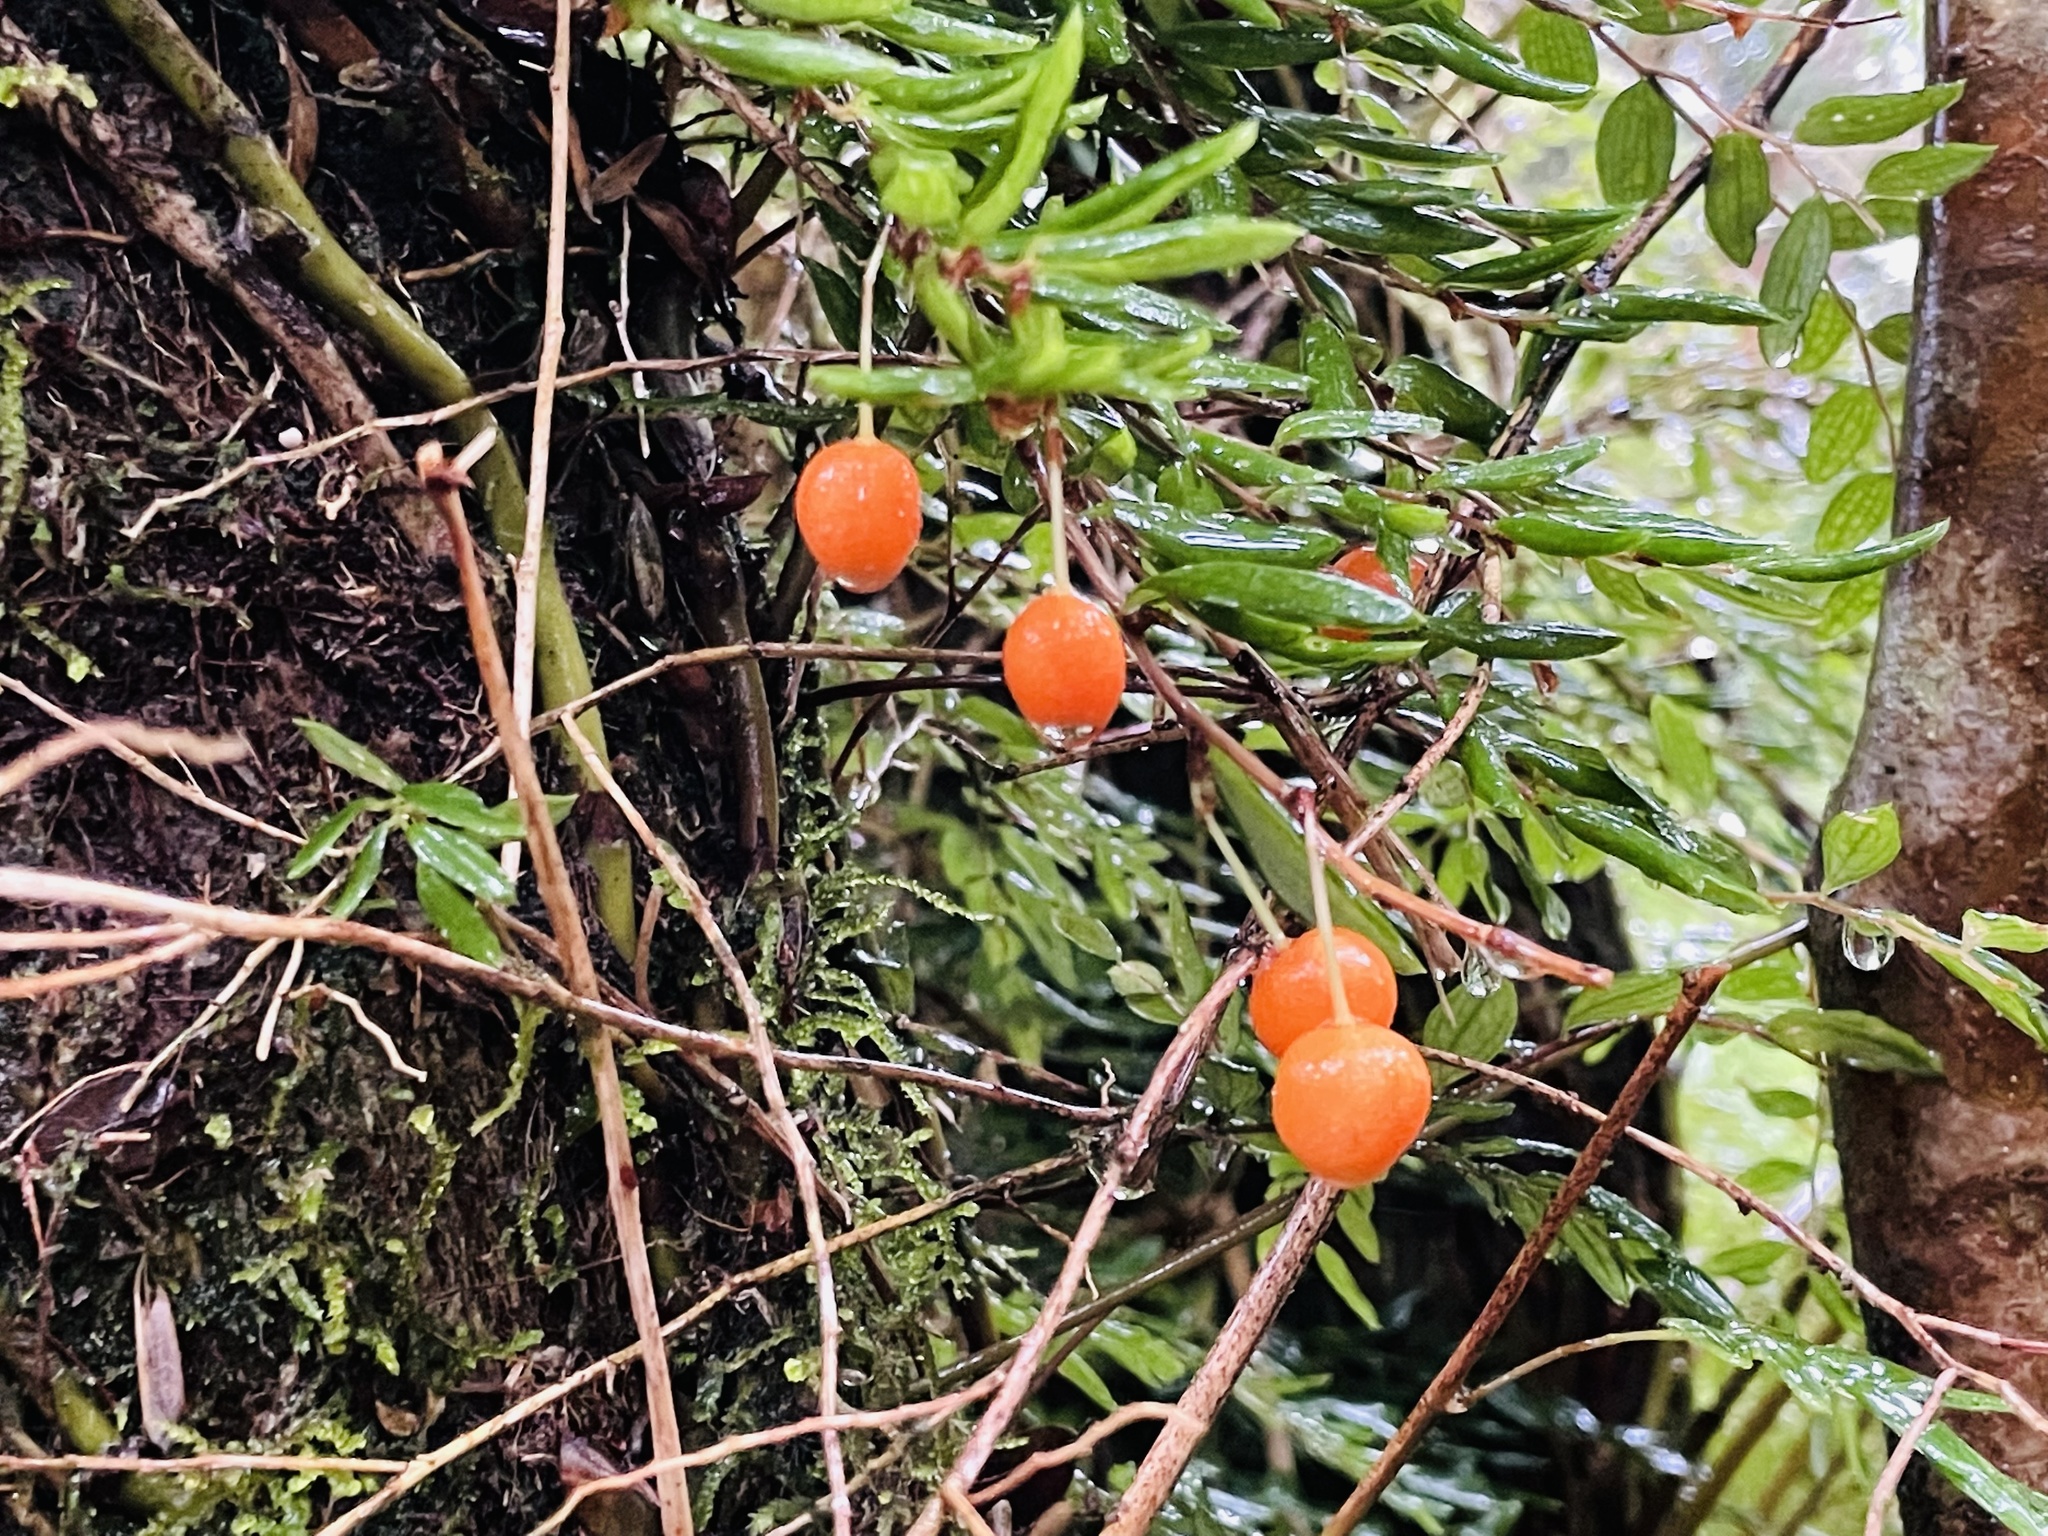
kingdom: Plantae
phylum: Tracheophyta
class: Liliopsida
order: Liliales
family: Alstroemeriaceae
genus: Luzuriaga
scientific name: Luzuriaga radicans
